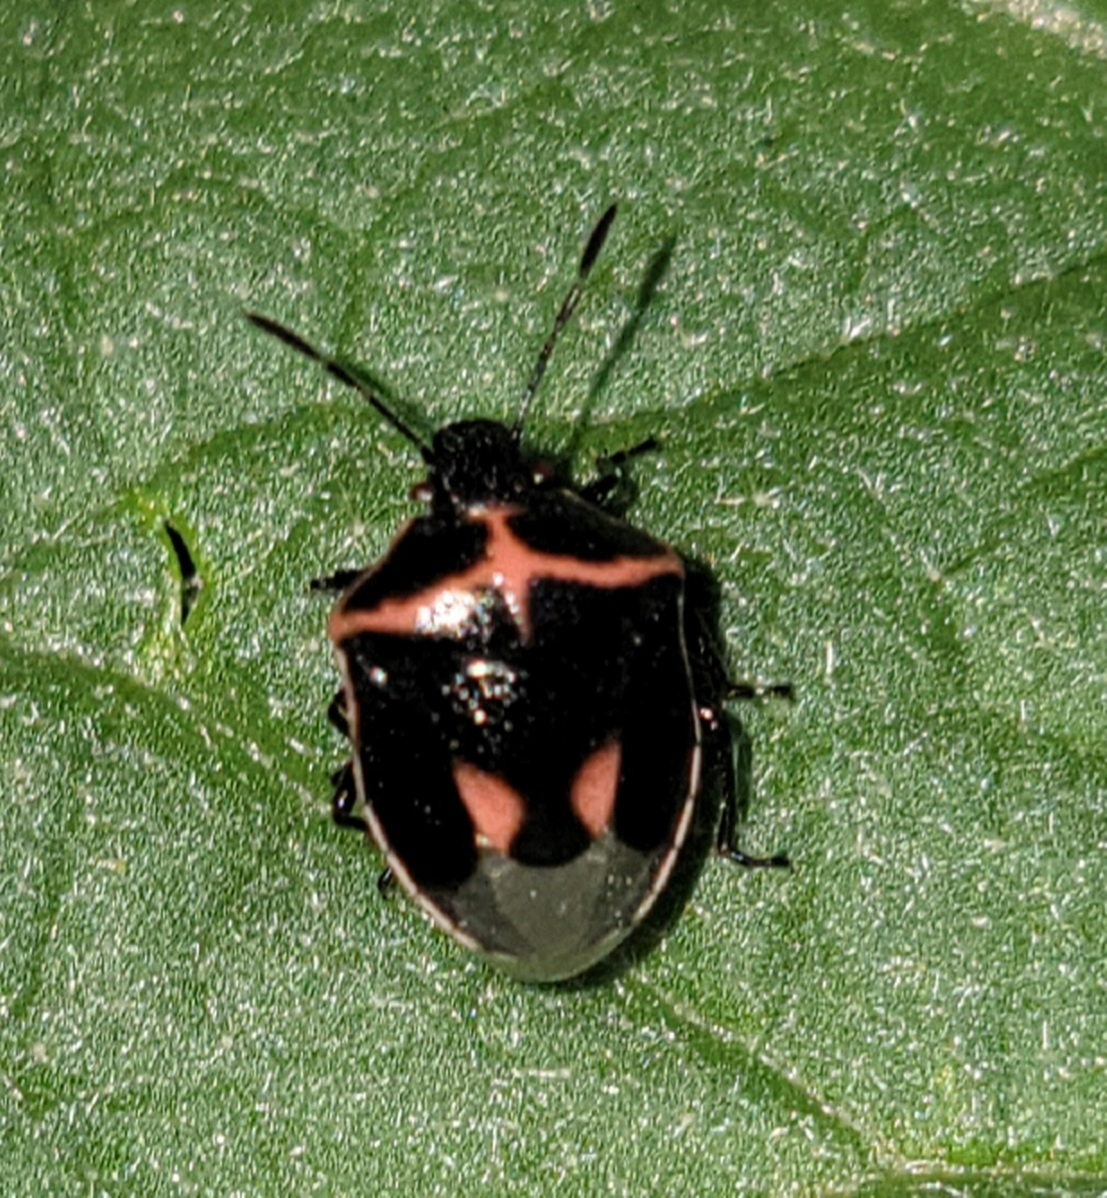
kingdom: Animalia
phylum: Arthropoda
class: Insecta
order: Hemiptera
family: Pentatomidae
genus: Cosmopepla
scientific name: Cosmopepla lintneriana
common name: Twice-stabbed stink bug
